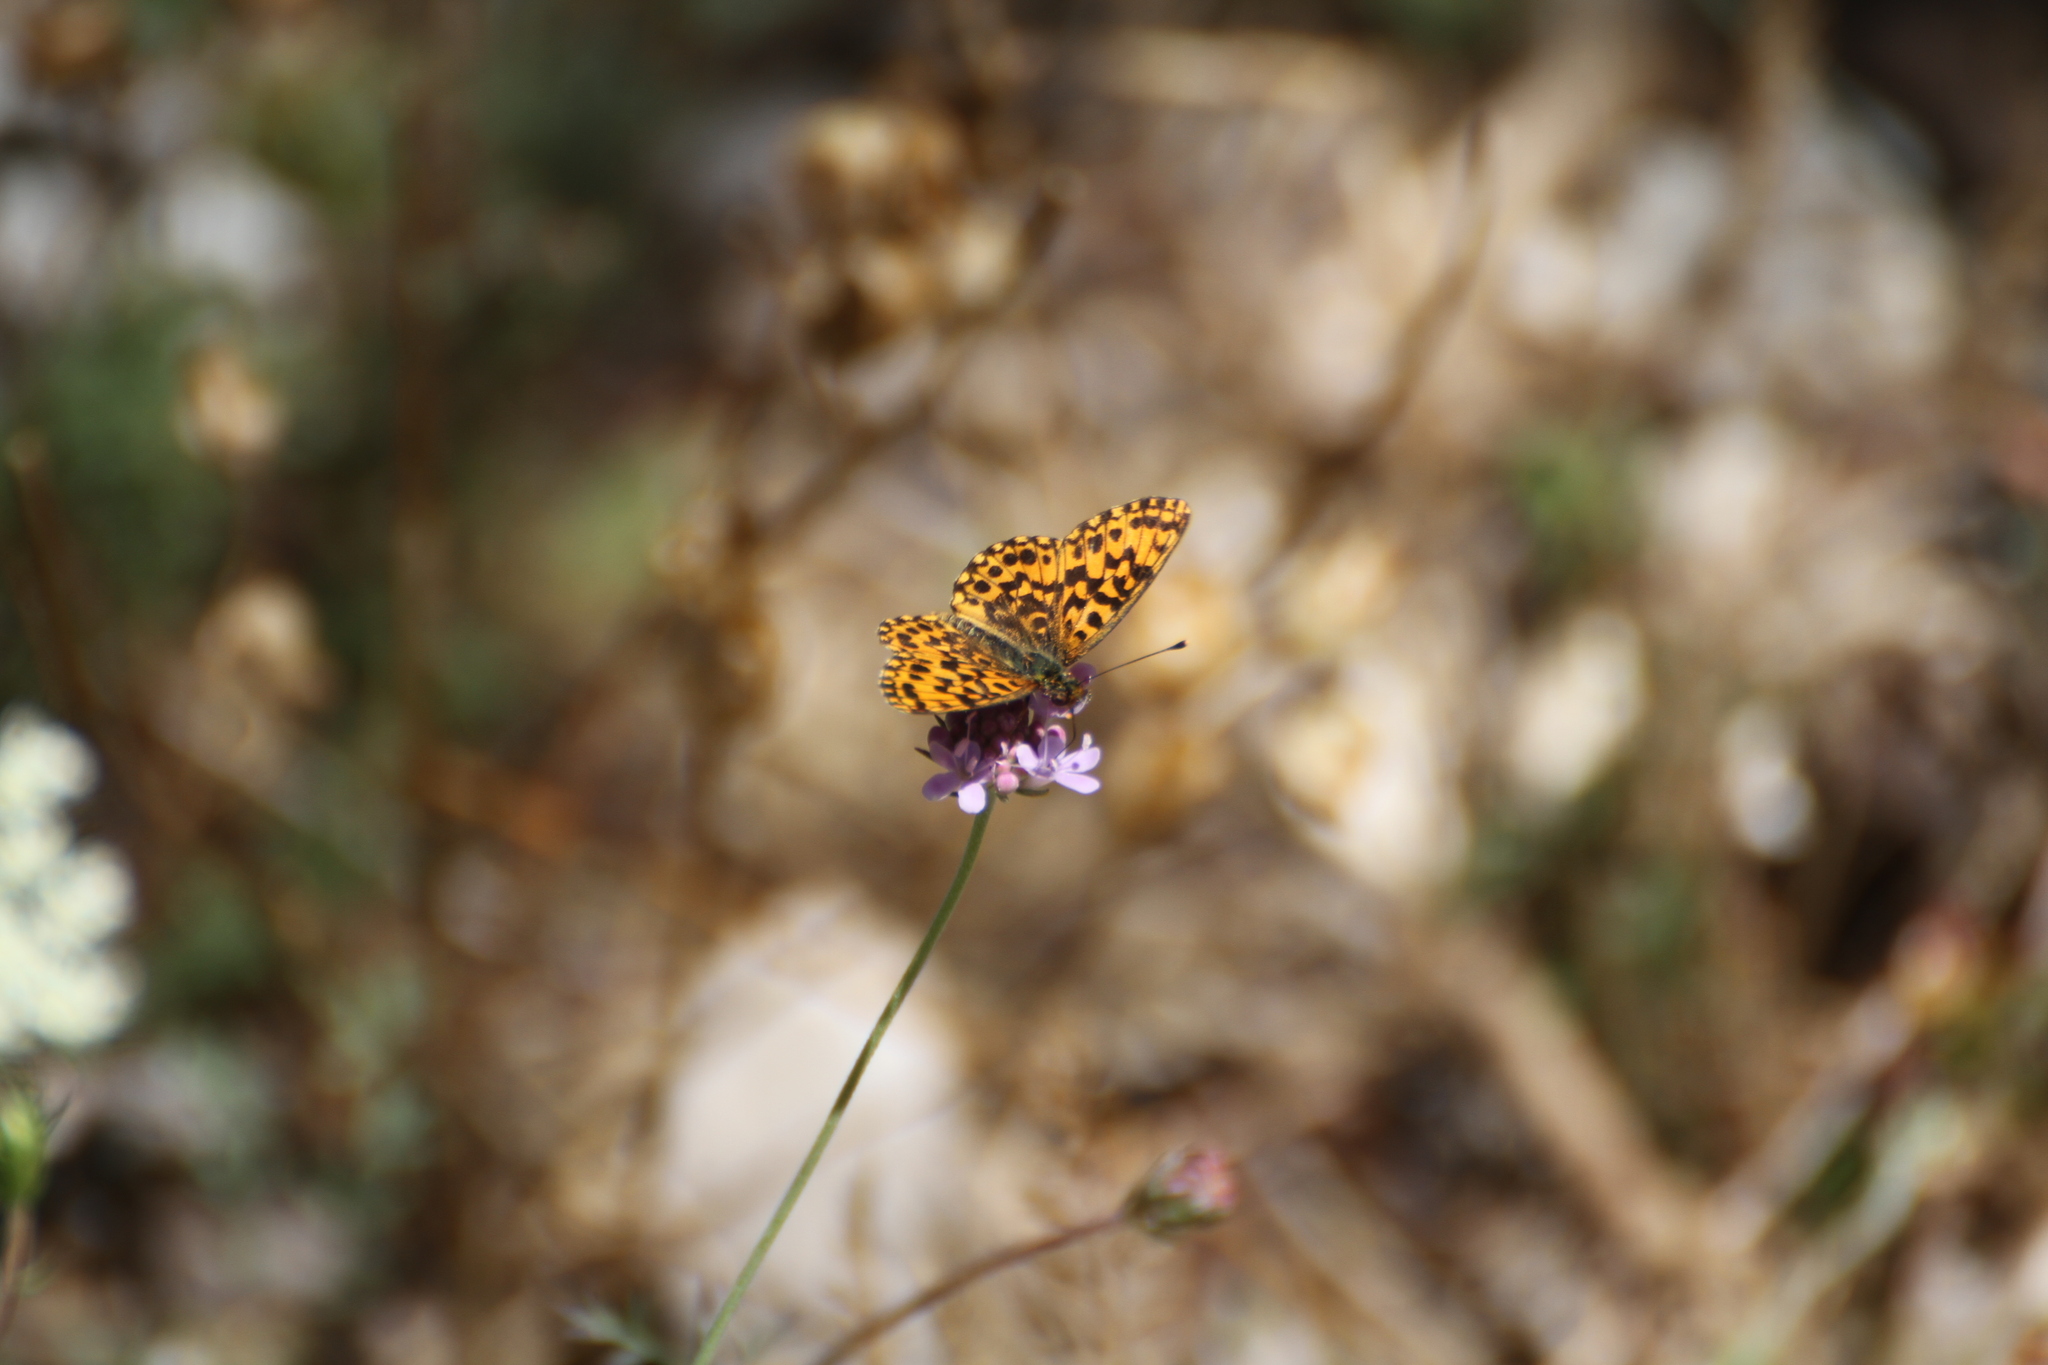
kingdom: Animalia
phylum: Arthropoda
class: Insecta
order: Lepidoptera
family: Nymphalidae
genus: Boloria
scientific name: Boloria dia
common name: Weaver's fritillary
